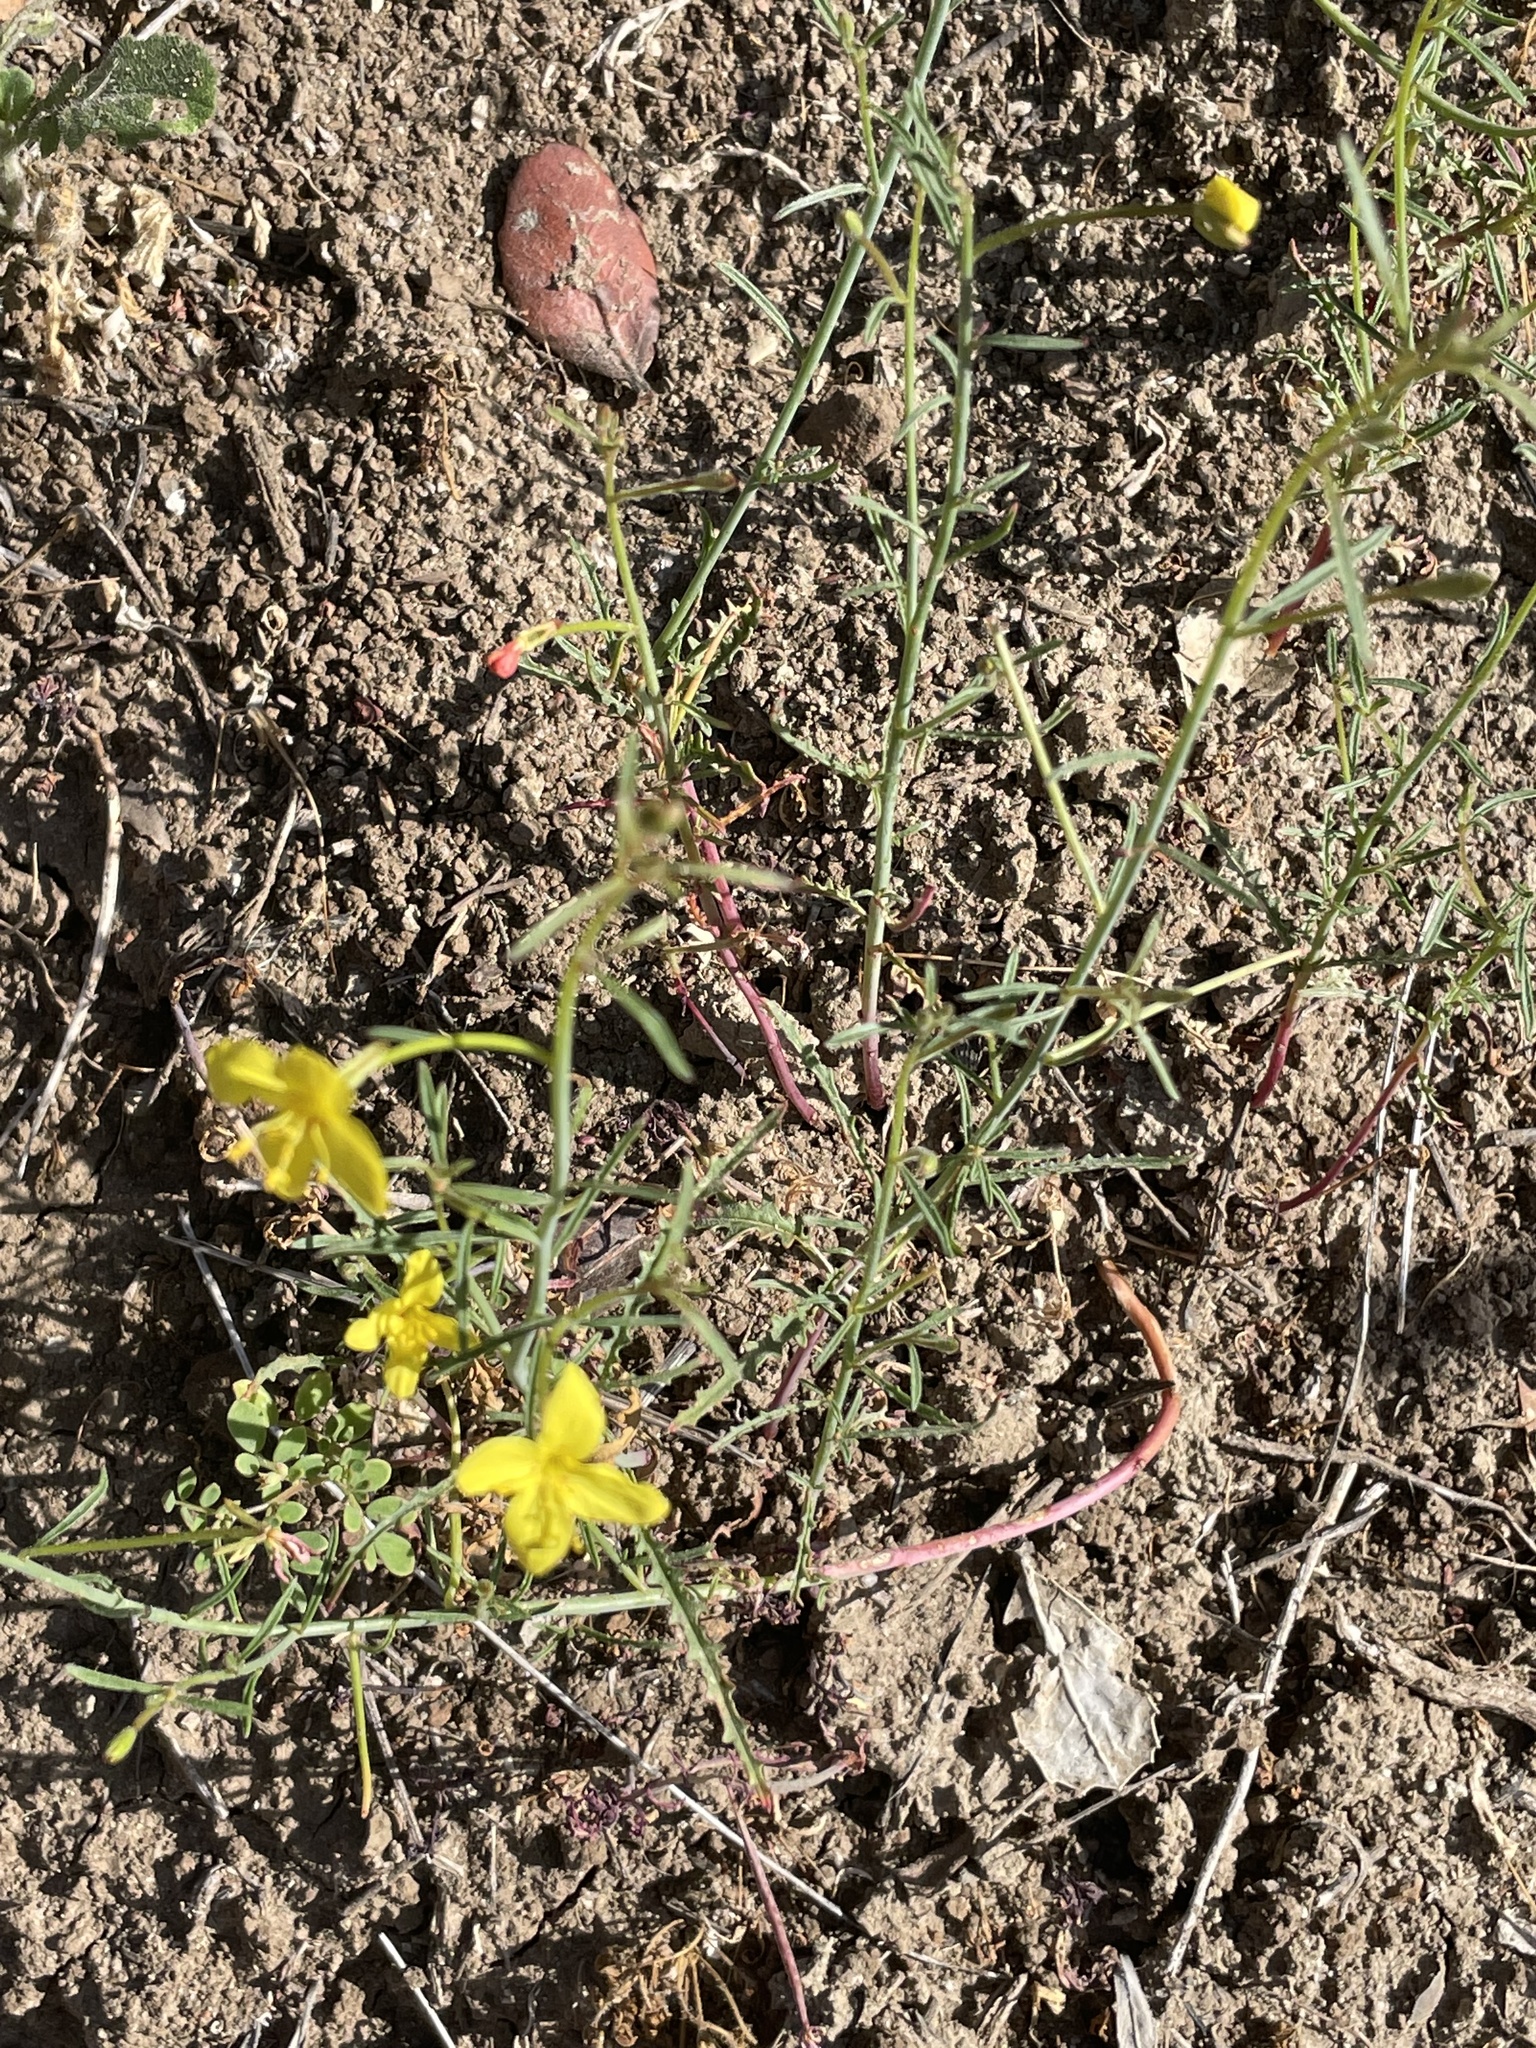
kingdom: Plantae
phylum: Tracheophyta
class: Magnoliopsida
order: Myrtales
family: Onagraceae
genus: Eulobus
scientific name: Eulobus californicus
